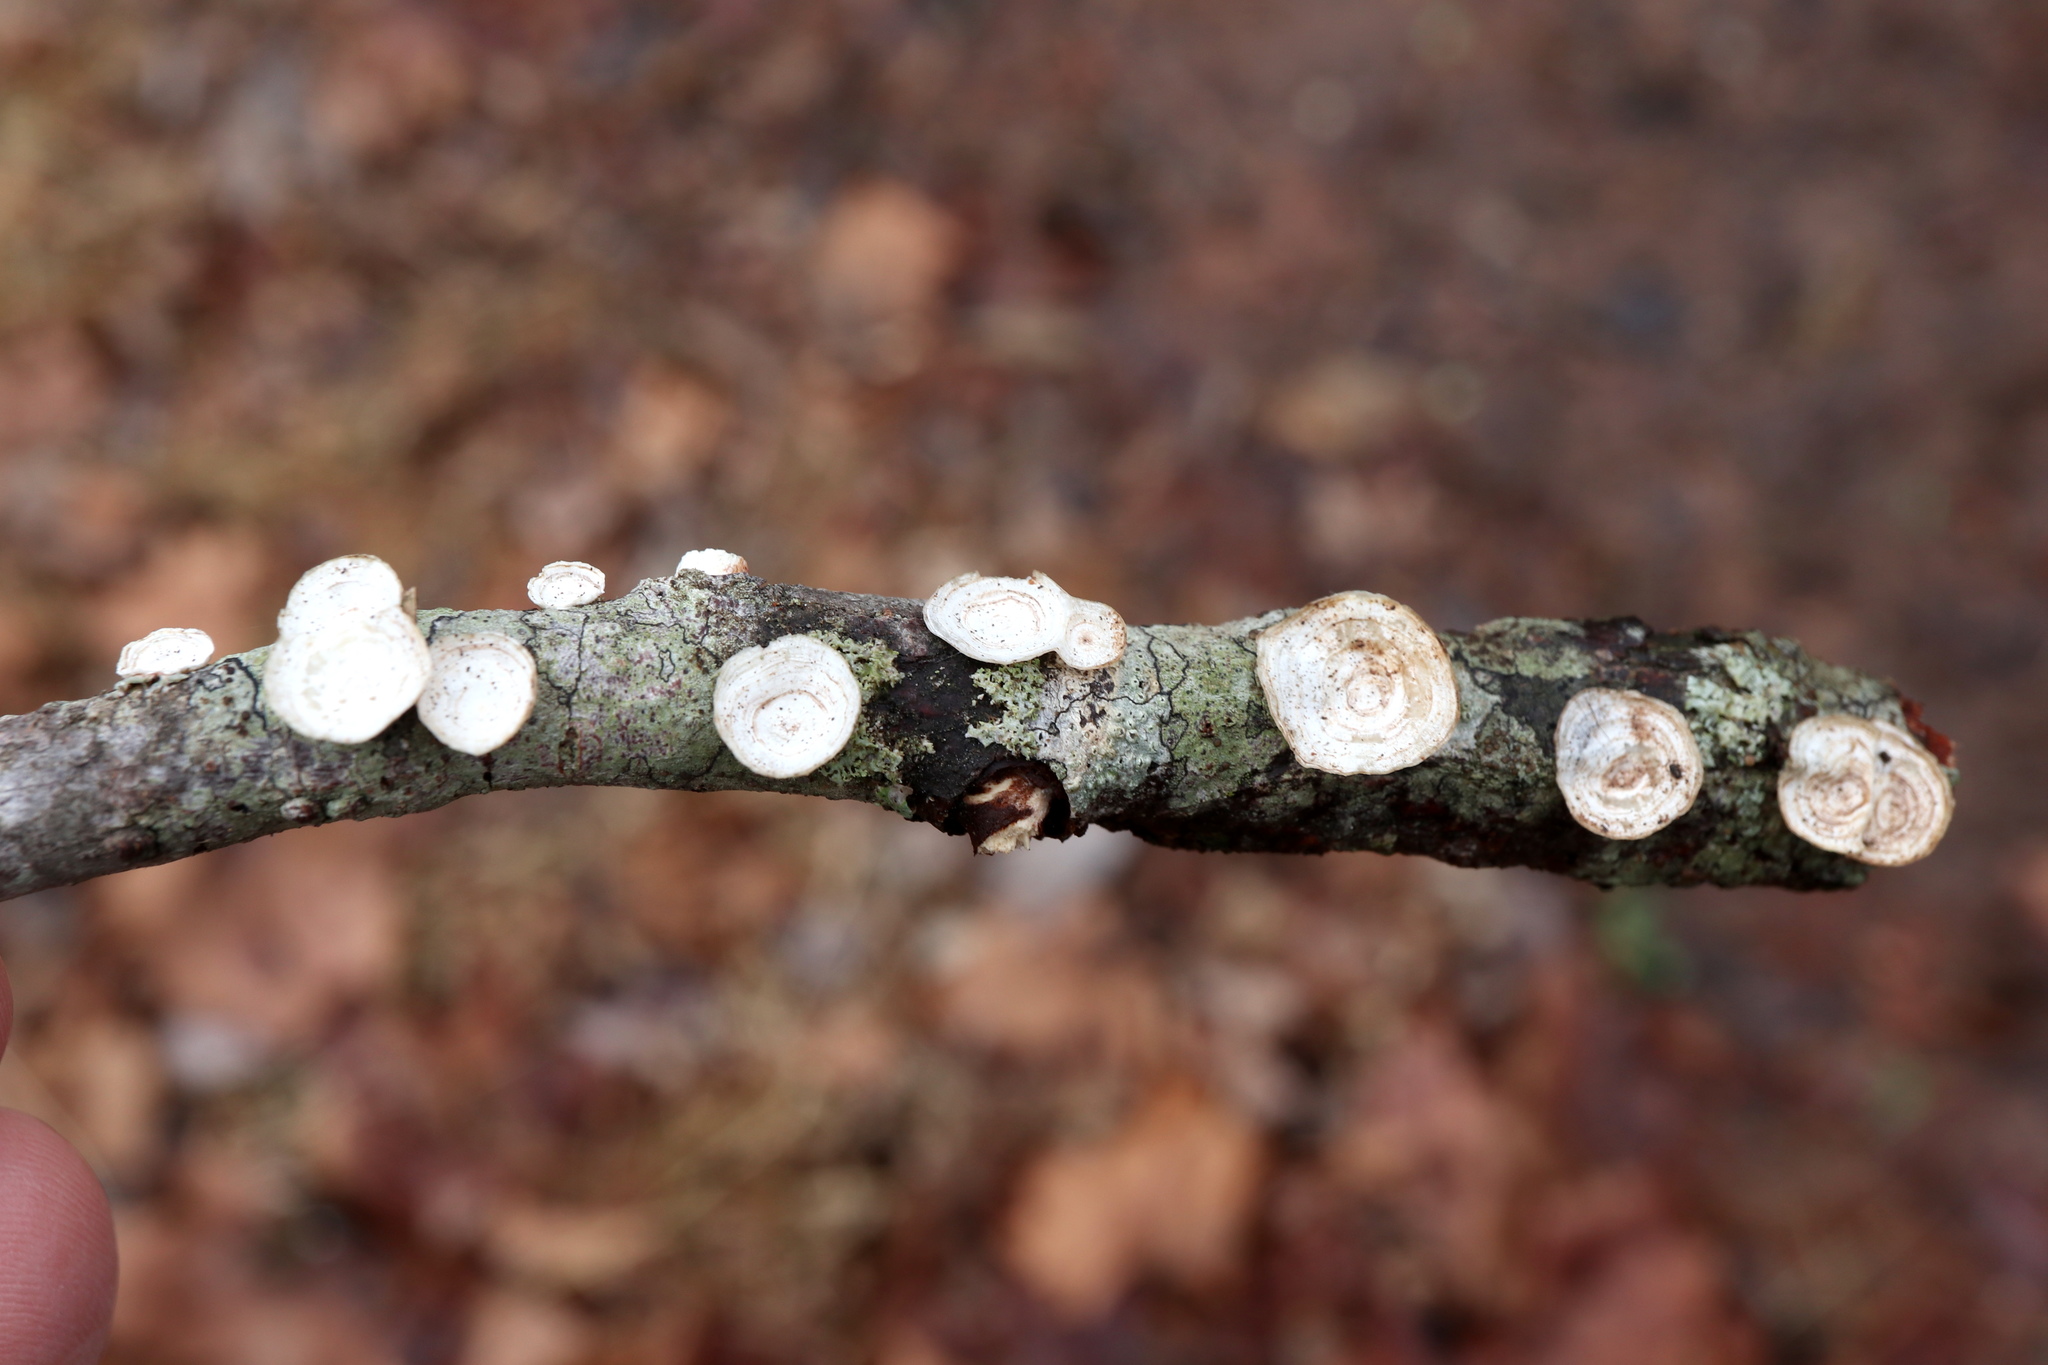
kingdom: Fungi
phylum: Basidiomycota
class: Agaricomycetes
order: Polyporales
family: Polyporaceae
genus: Poronidulus
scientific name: Poronidulus conchifer
